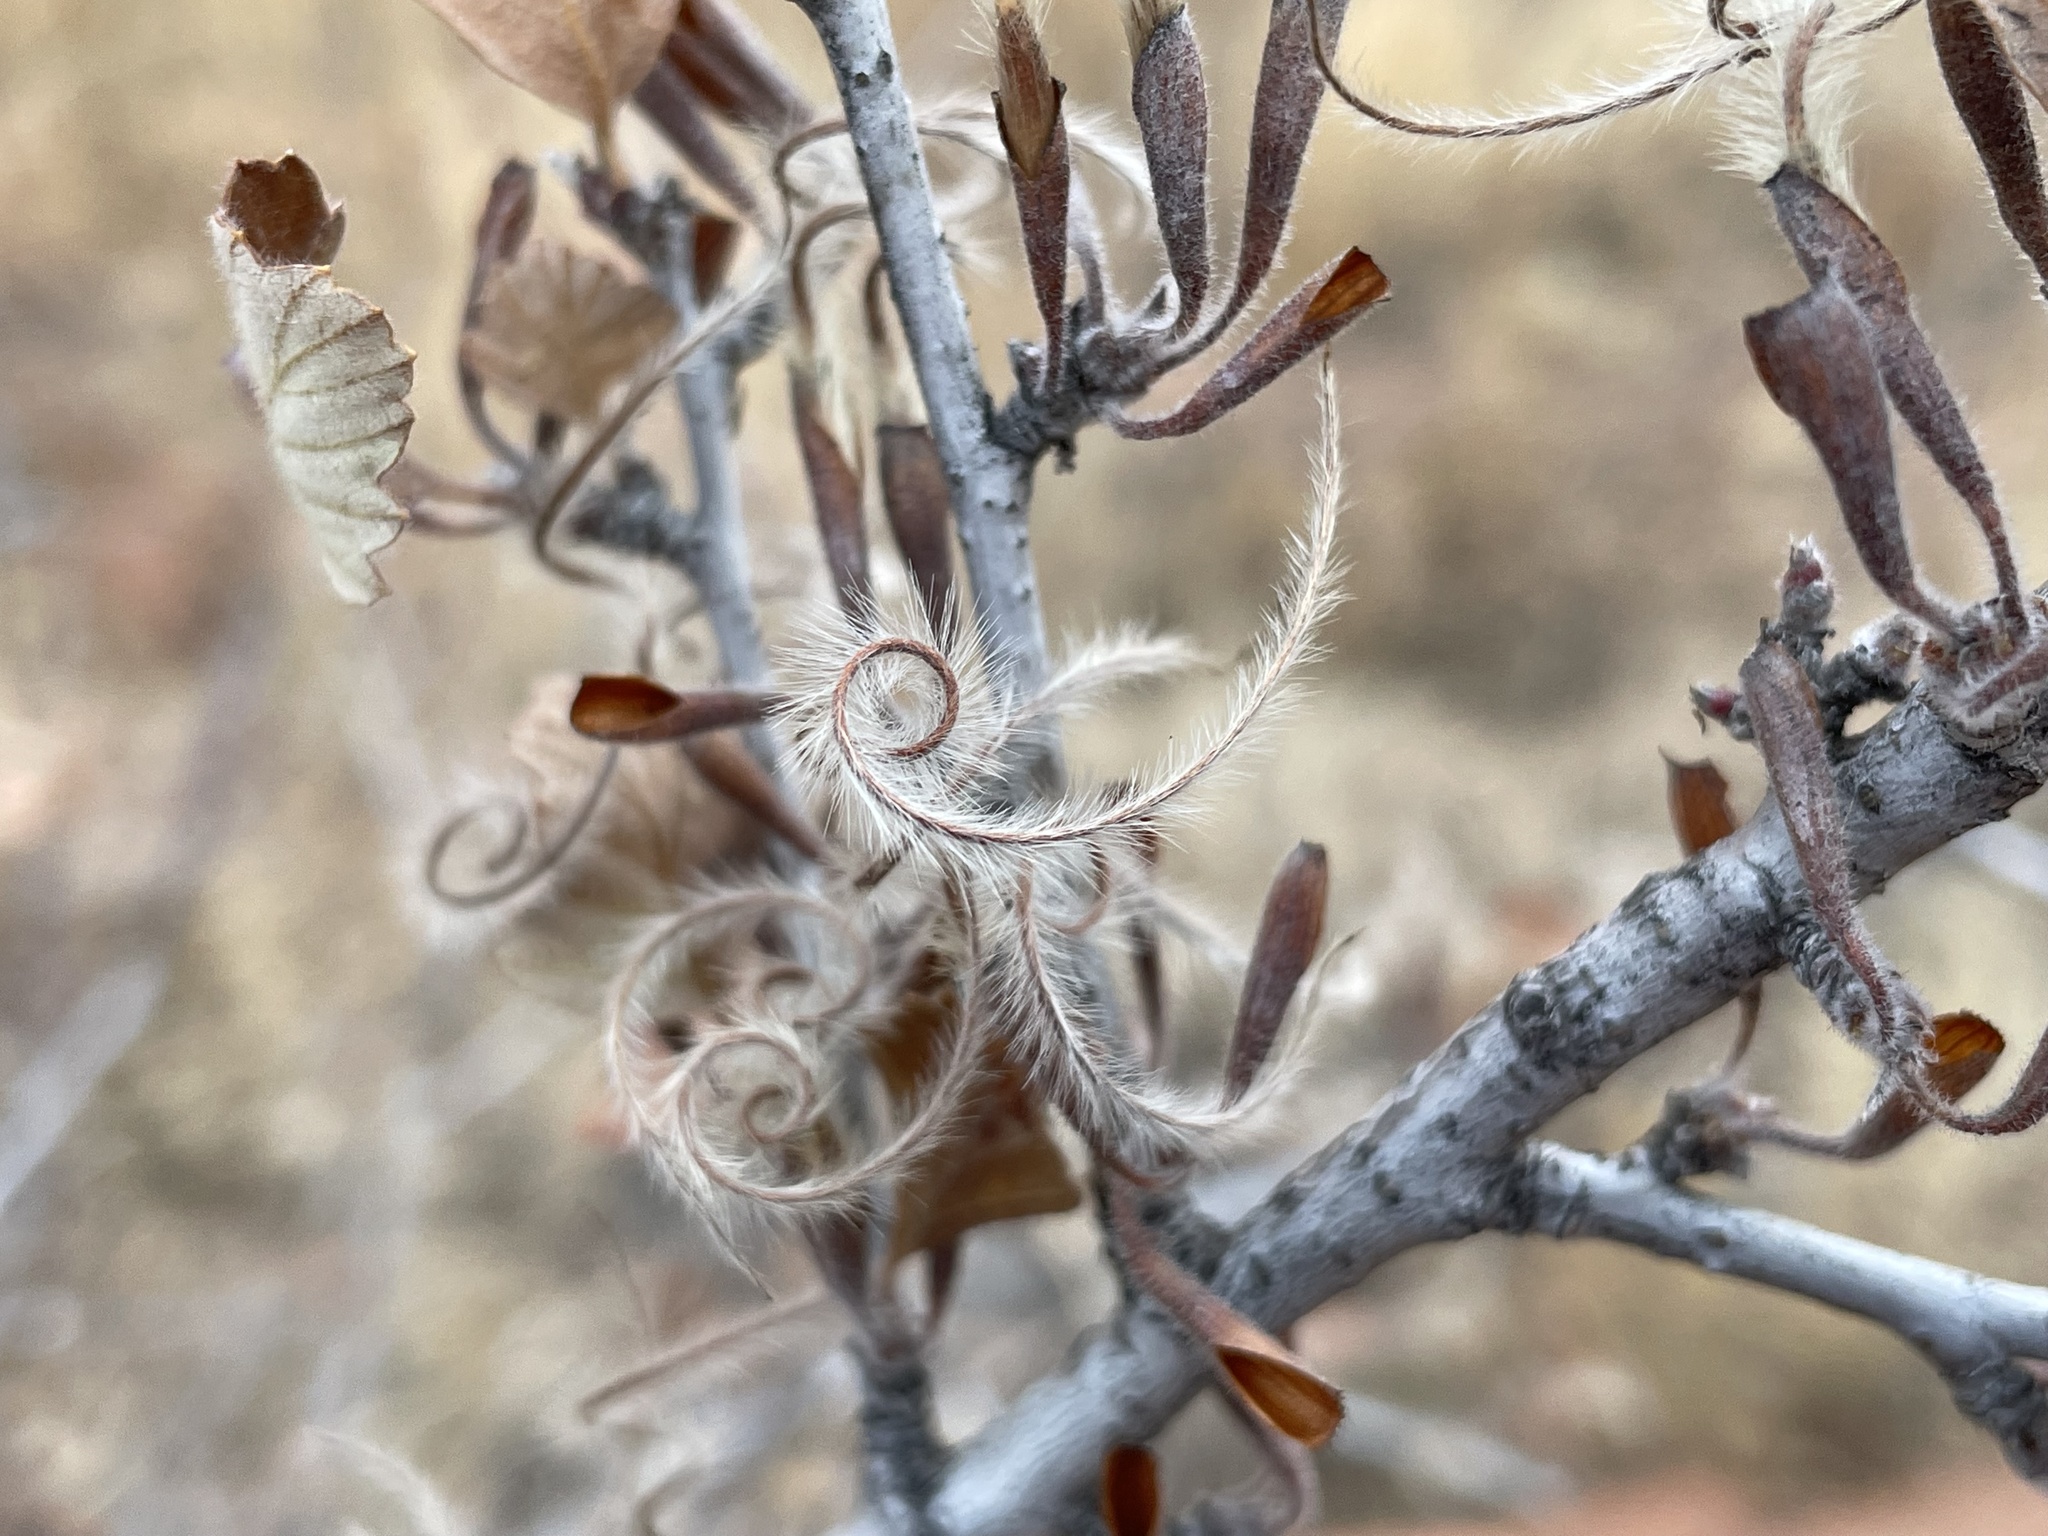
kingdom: Plantae
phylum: Tracheophyta
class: Magnoliopsida
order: Rosales
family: Rosaceae
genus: Cercocarpus
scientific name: Cercocarpus montanus
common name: Alder-leaf cercocarpus
